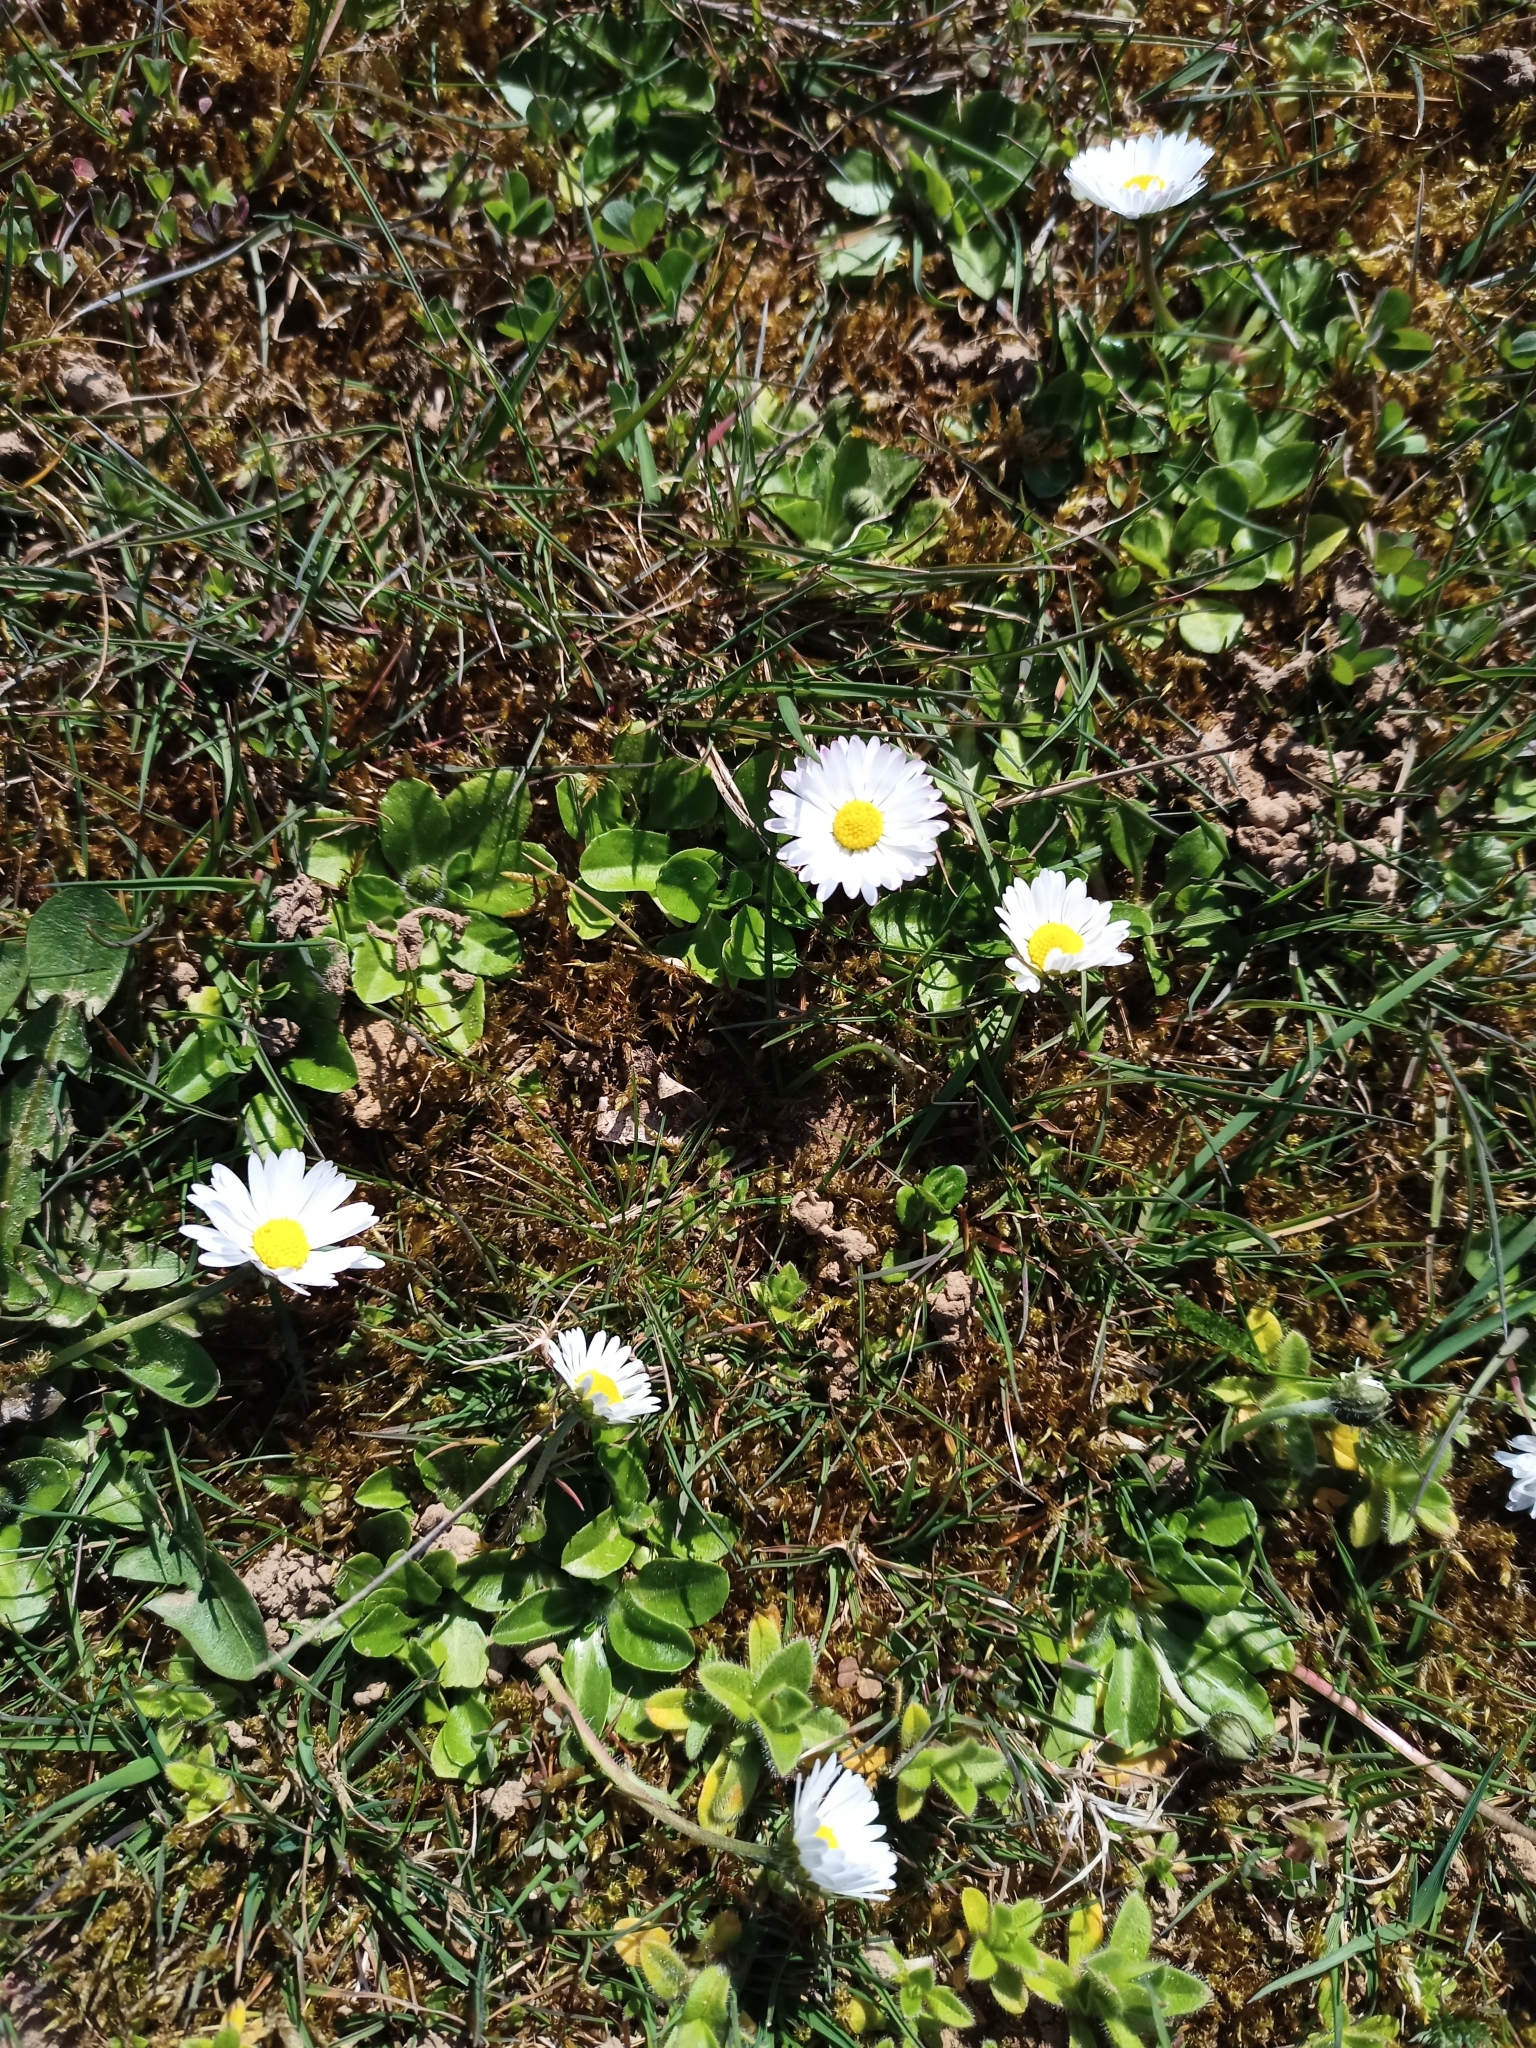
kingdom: Plantae
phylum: Tracheophyta
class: Magnoliopsida
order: Asterales
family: Asteraceae
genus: Bellis
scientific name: Bellis perennis
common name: Lawndaisy
